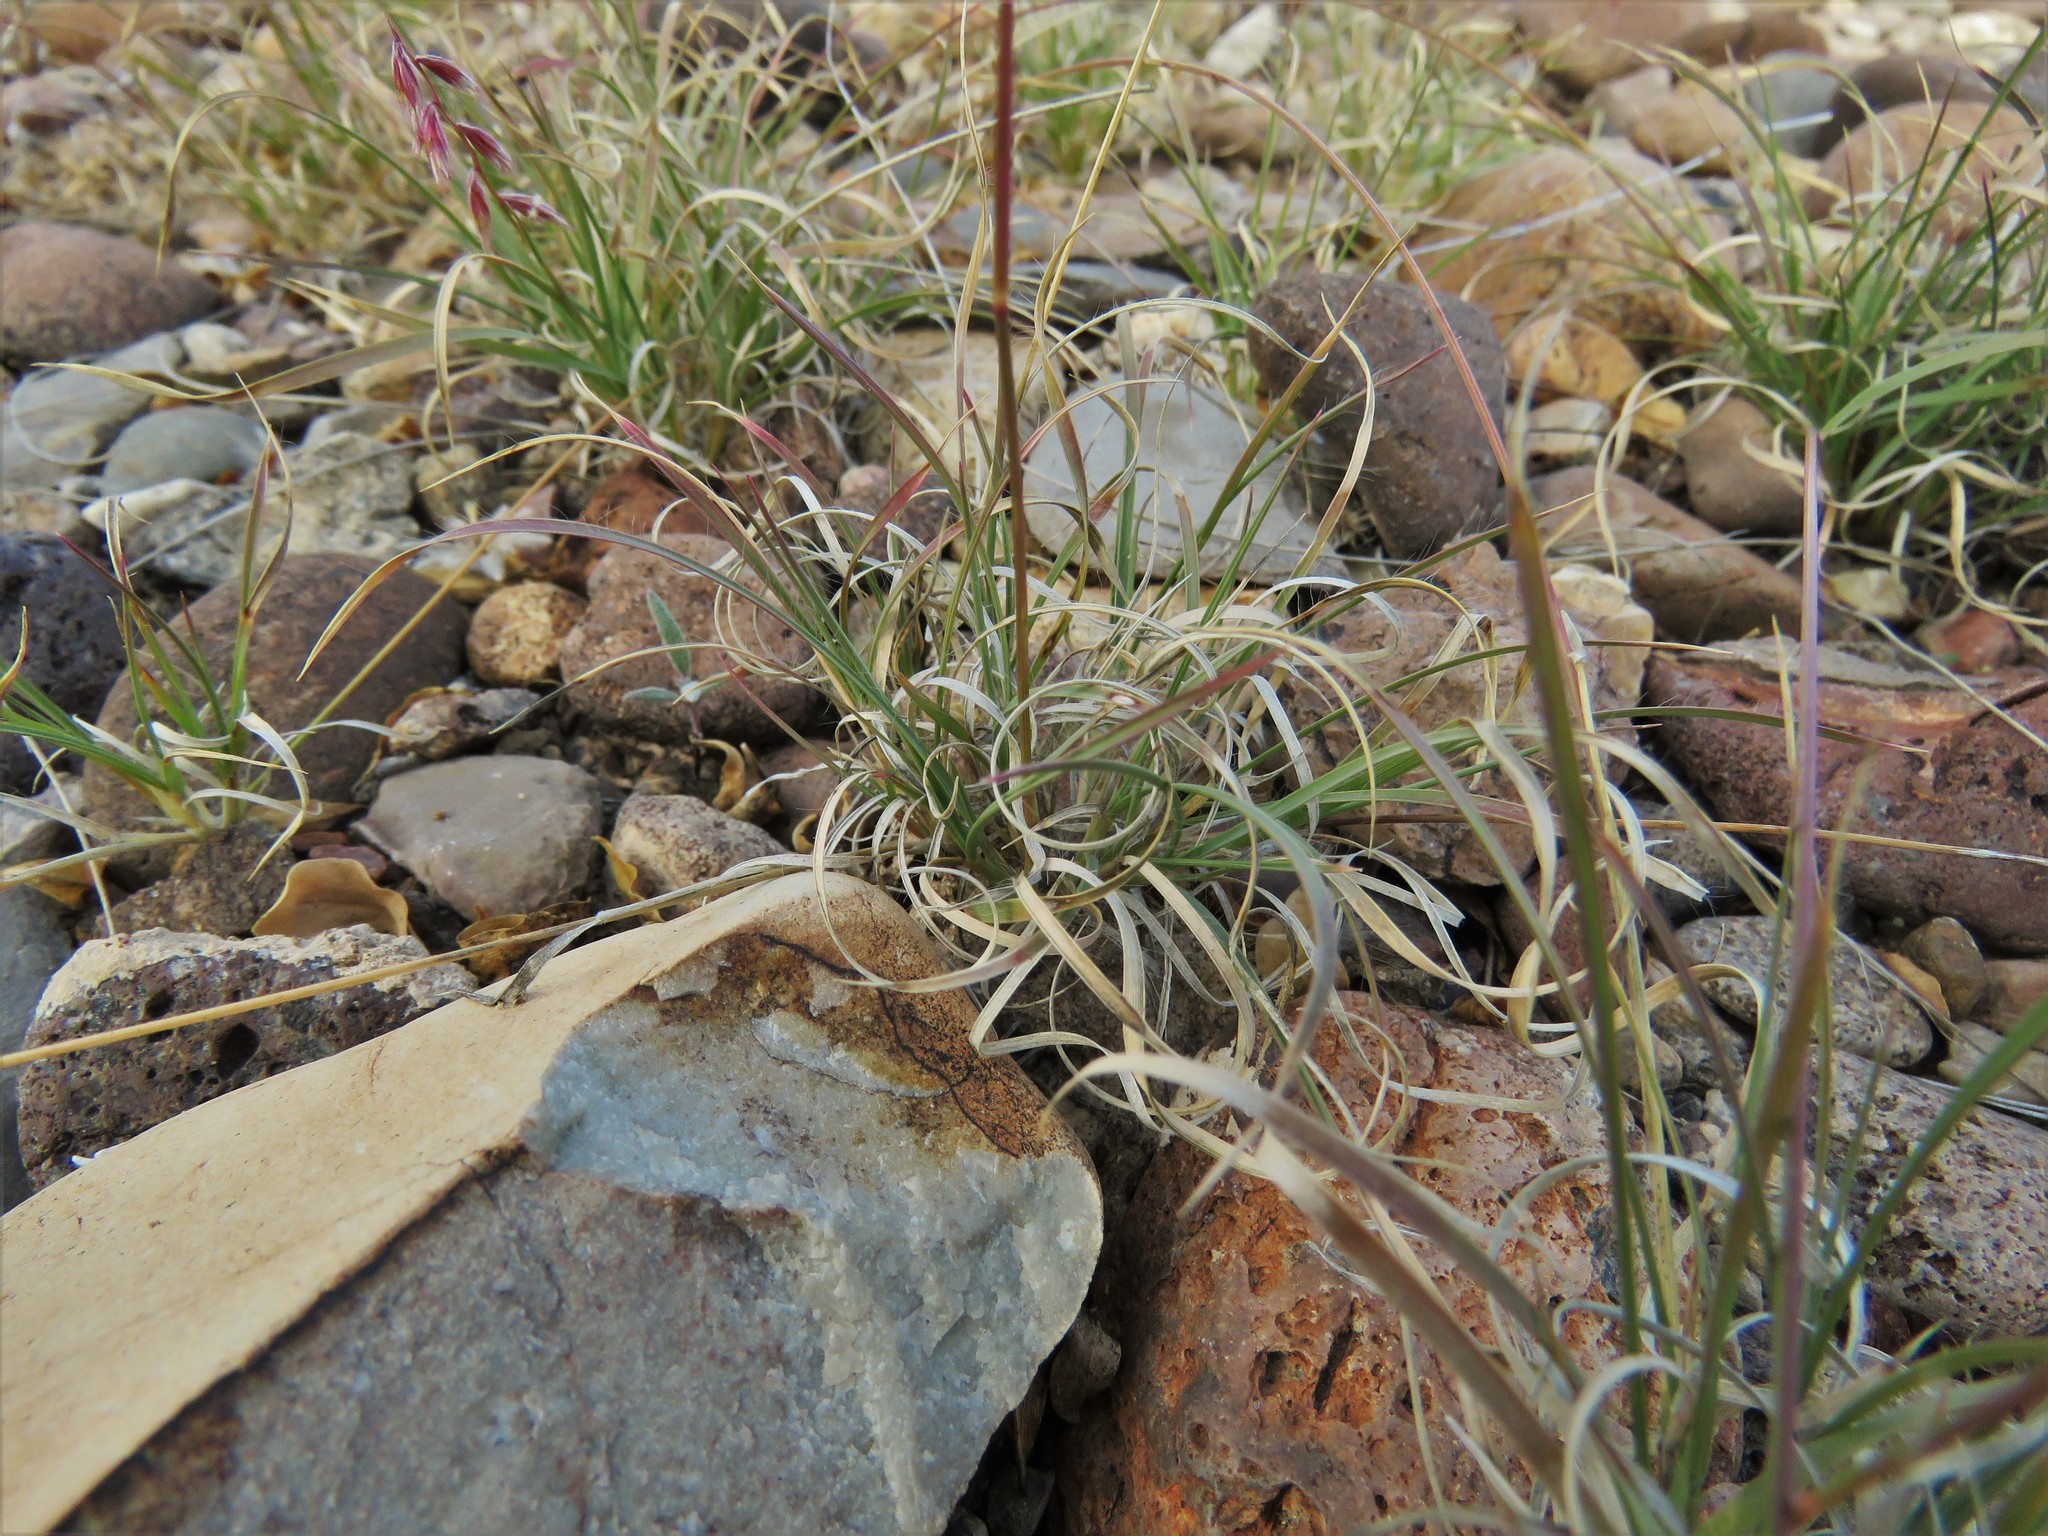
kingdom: Plantae
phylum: Tracheophyta
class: Liliopsida
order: Poales
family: Poaceae
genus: Bouteloua
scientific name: Bouteloua erecta
